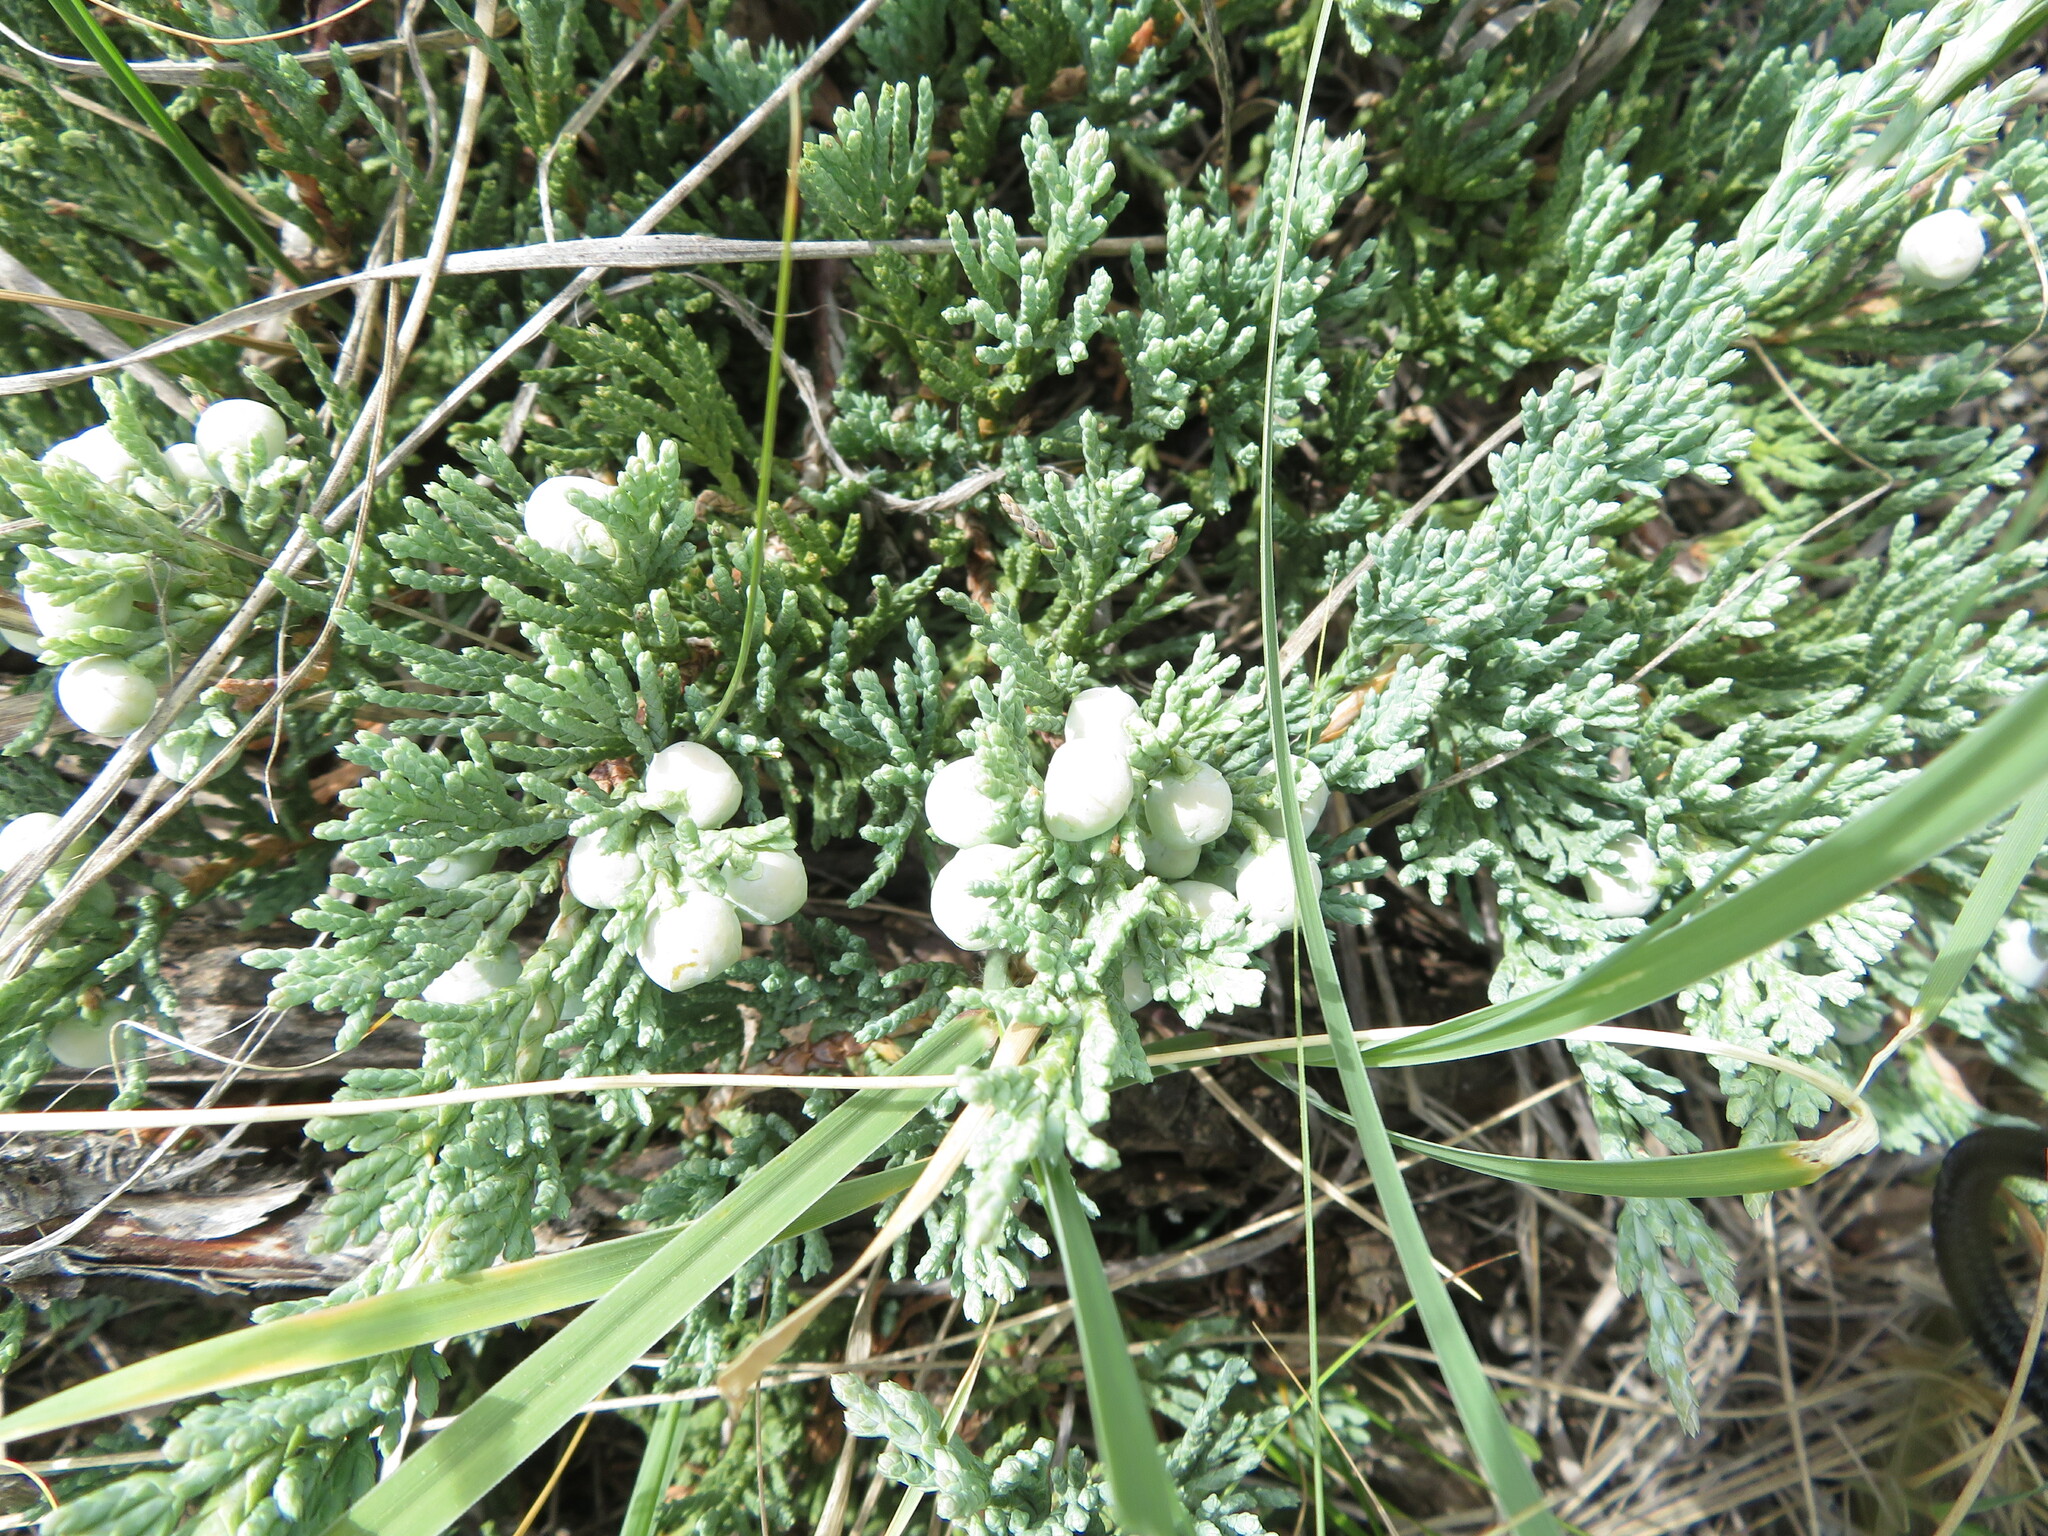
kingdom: Plantae
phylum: Tracheophyta
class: Pinopsida
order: Pinales
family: Cupressaceae
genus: Juniperus
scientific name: Juniperus horizontalis
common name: Creeping juniper
